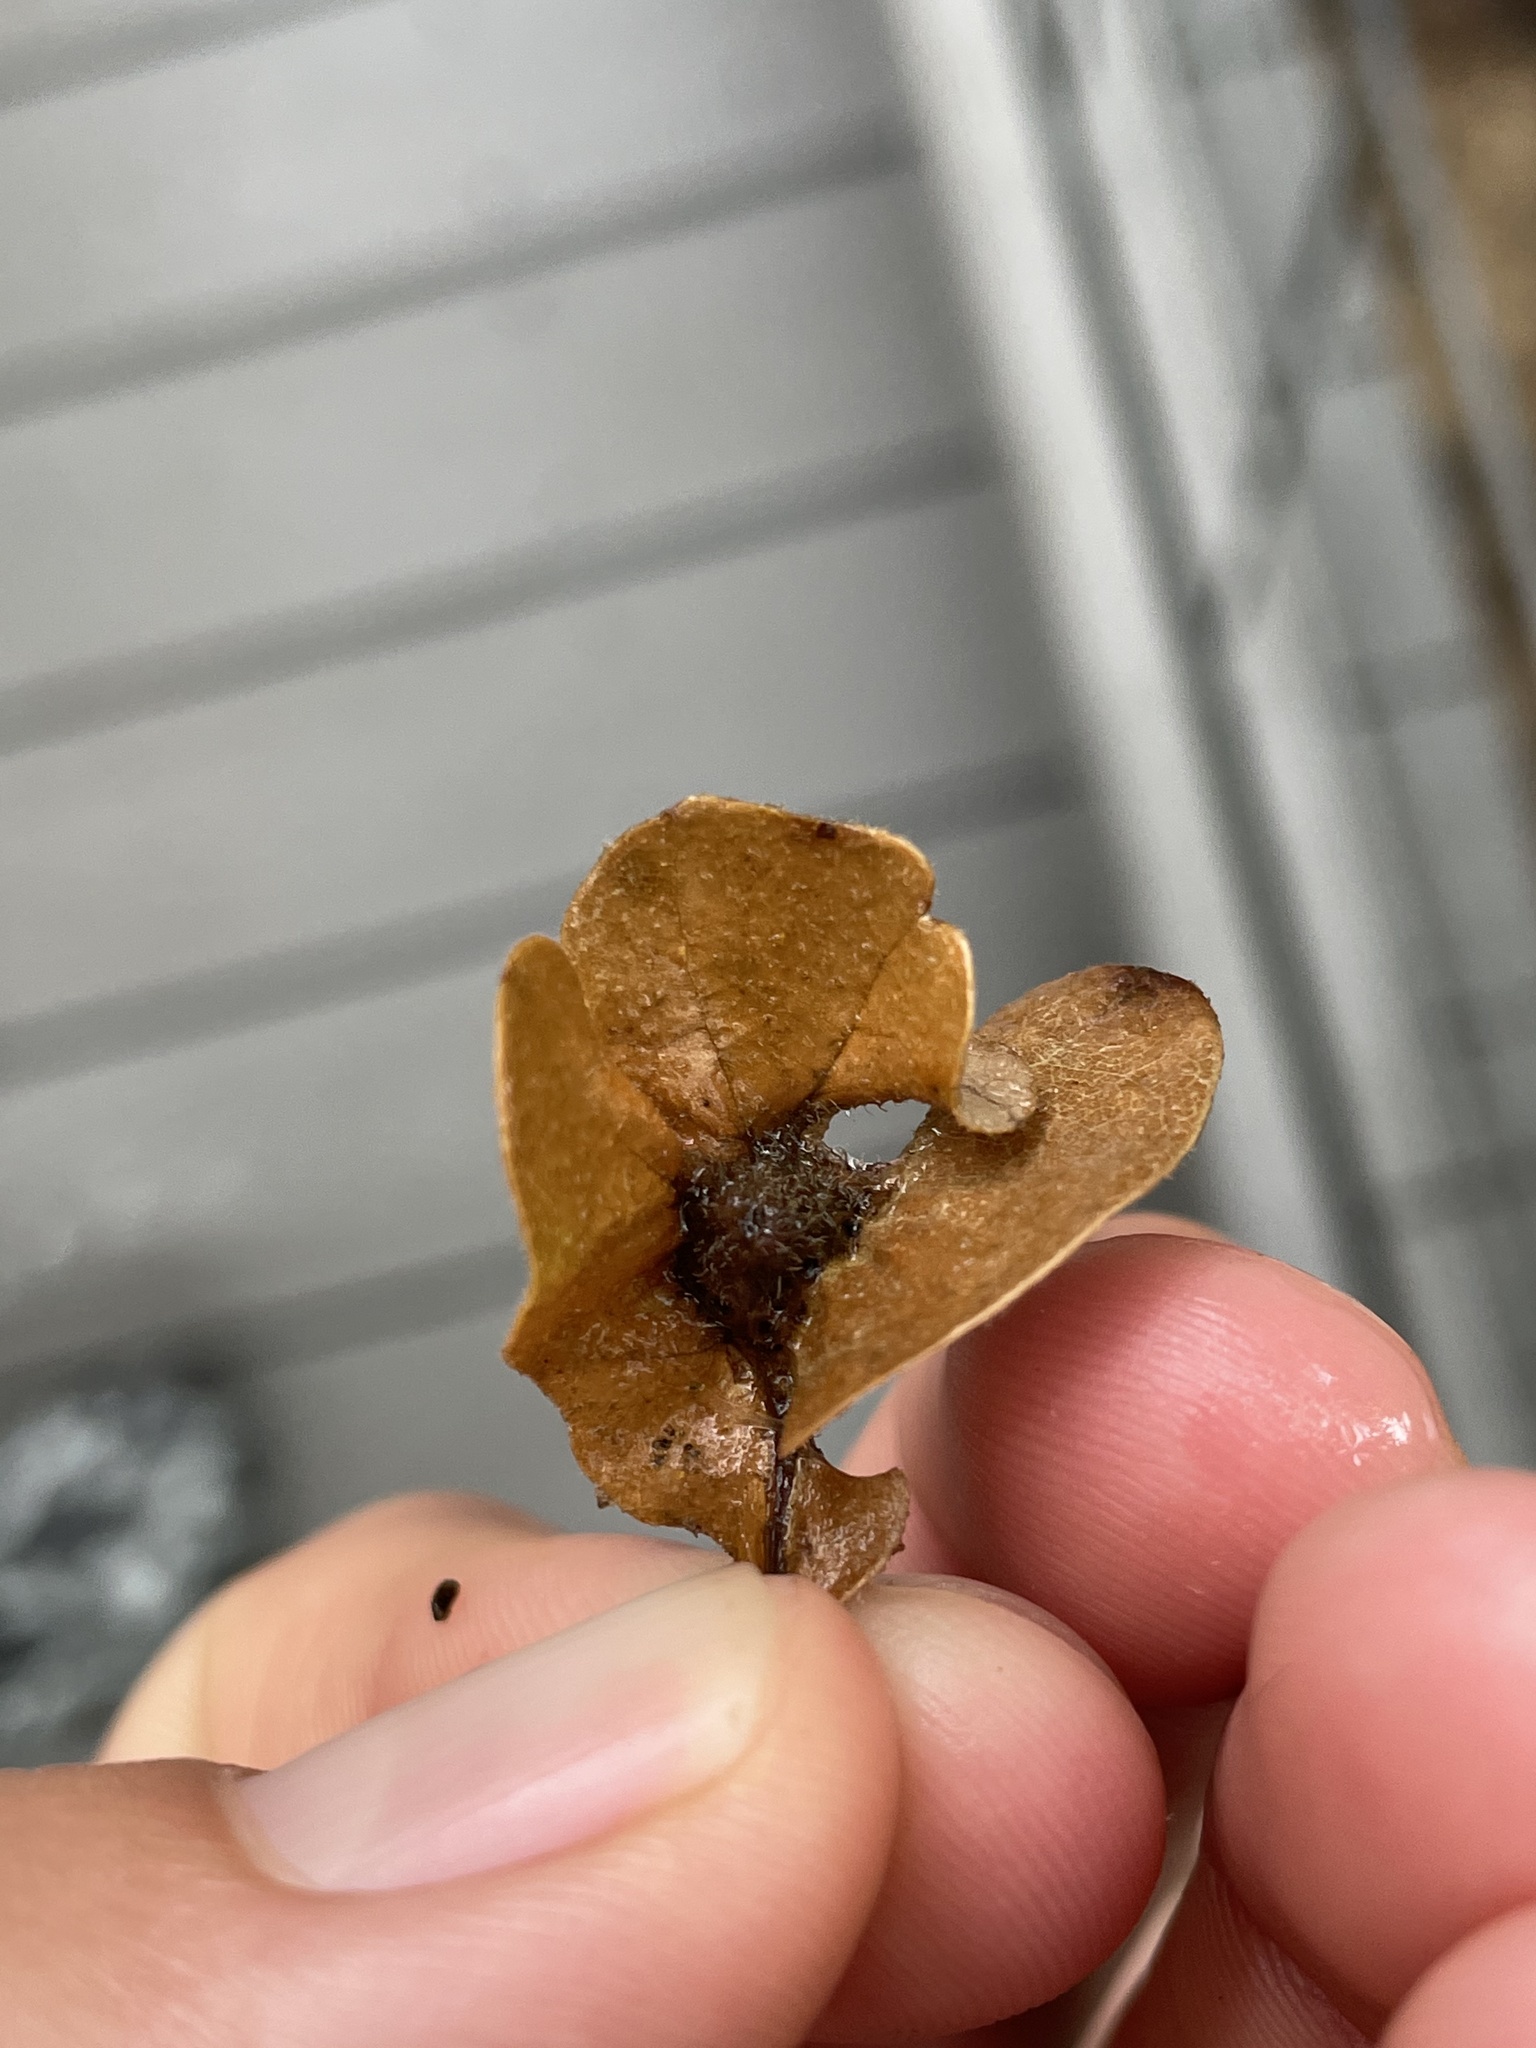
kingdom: Animalia
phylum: Arthropoda
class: Insecta
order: Hymenoptera
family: Cynipidae
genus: Andricus
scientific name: Andricus
